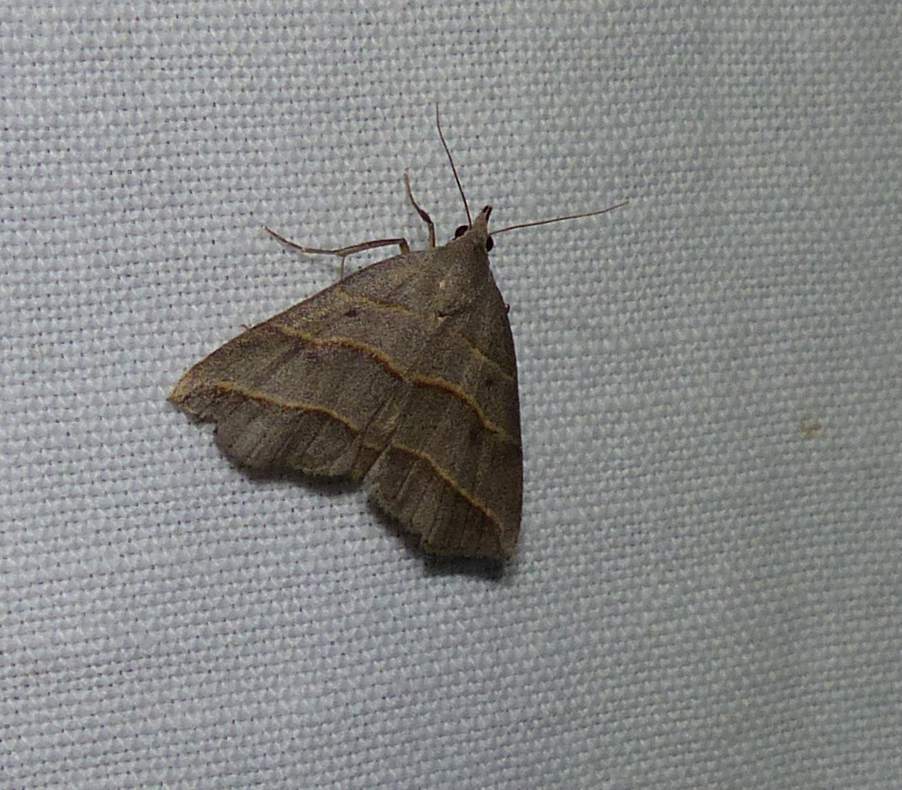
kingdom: Animalia
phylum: Arthropoda
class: Insecta
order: Lepidoptera
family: Erebidae
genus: Colobochyla
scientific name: Colobochyla interpuncta
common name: Yellow-lined owlet
